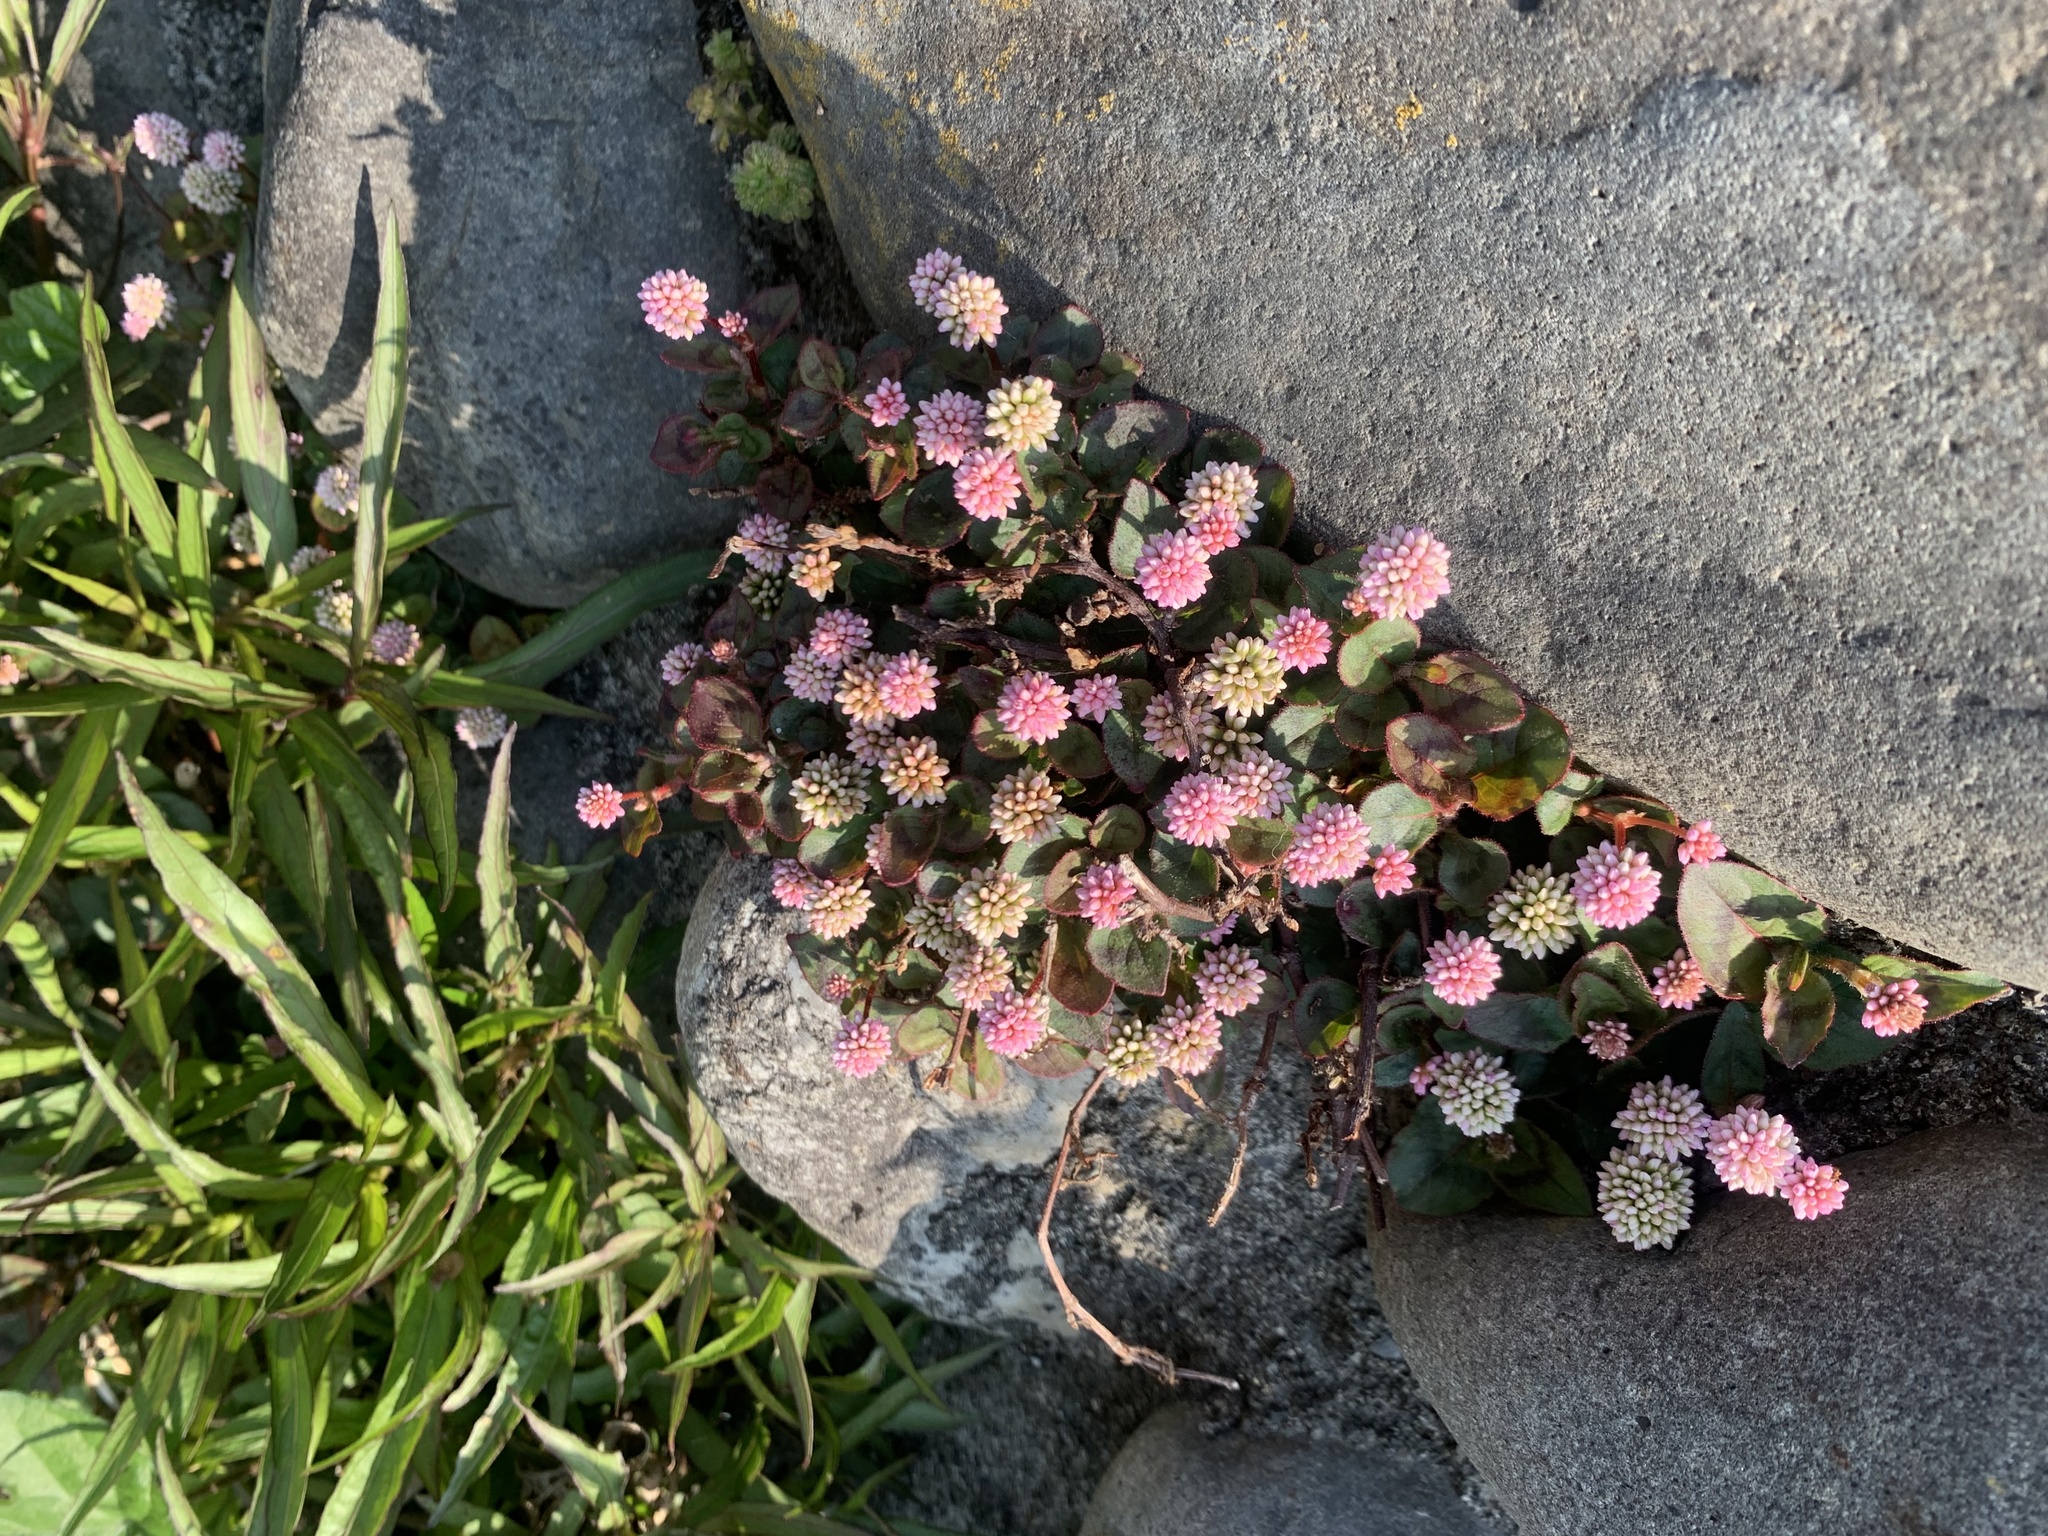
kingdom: Plantae
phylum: Tracheophyta
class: Magnoliopsida
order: Caryophyllales
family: Polygonaceae
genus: Persicaria
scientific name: Persicaria capitata
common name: Pinkhead smartweed
